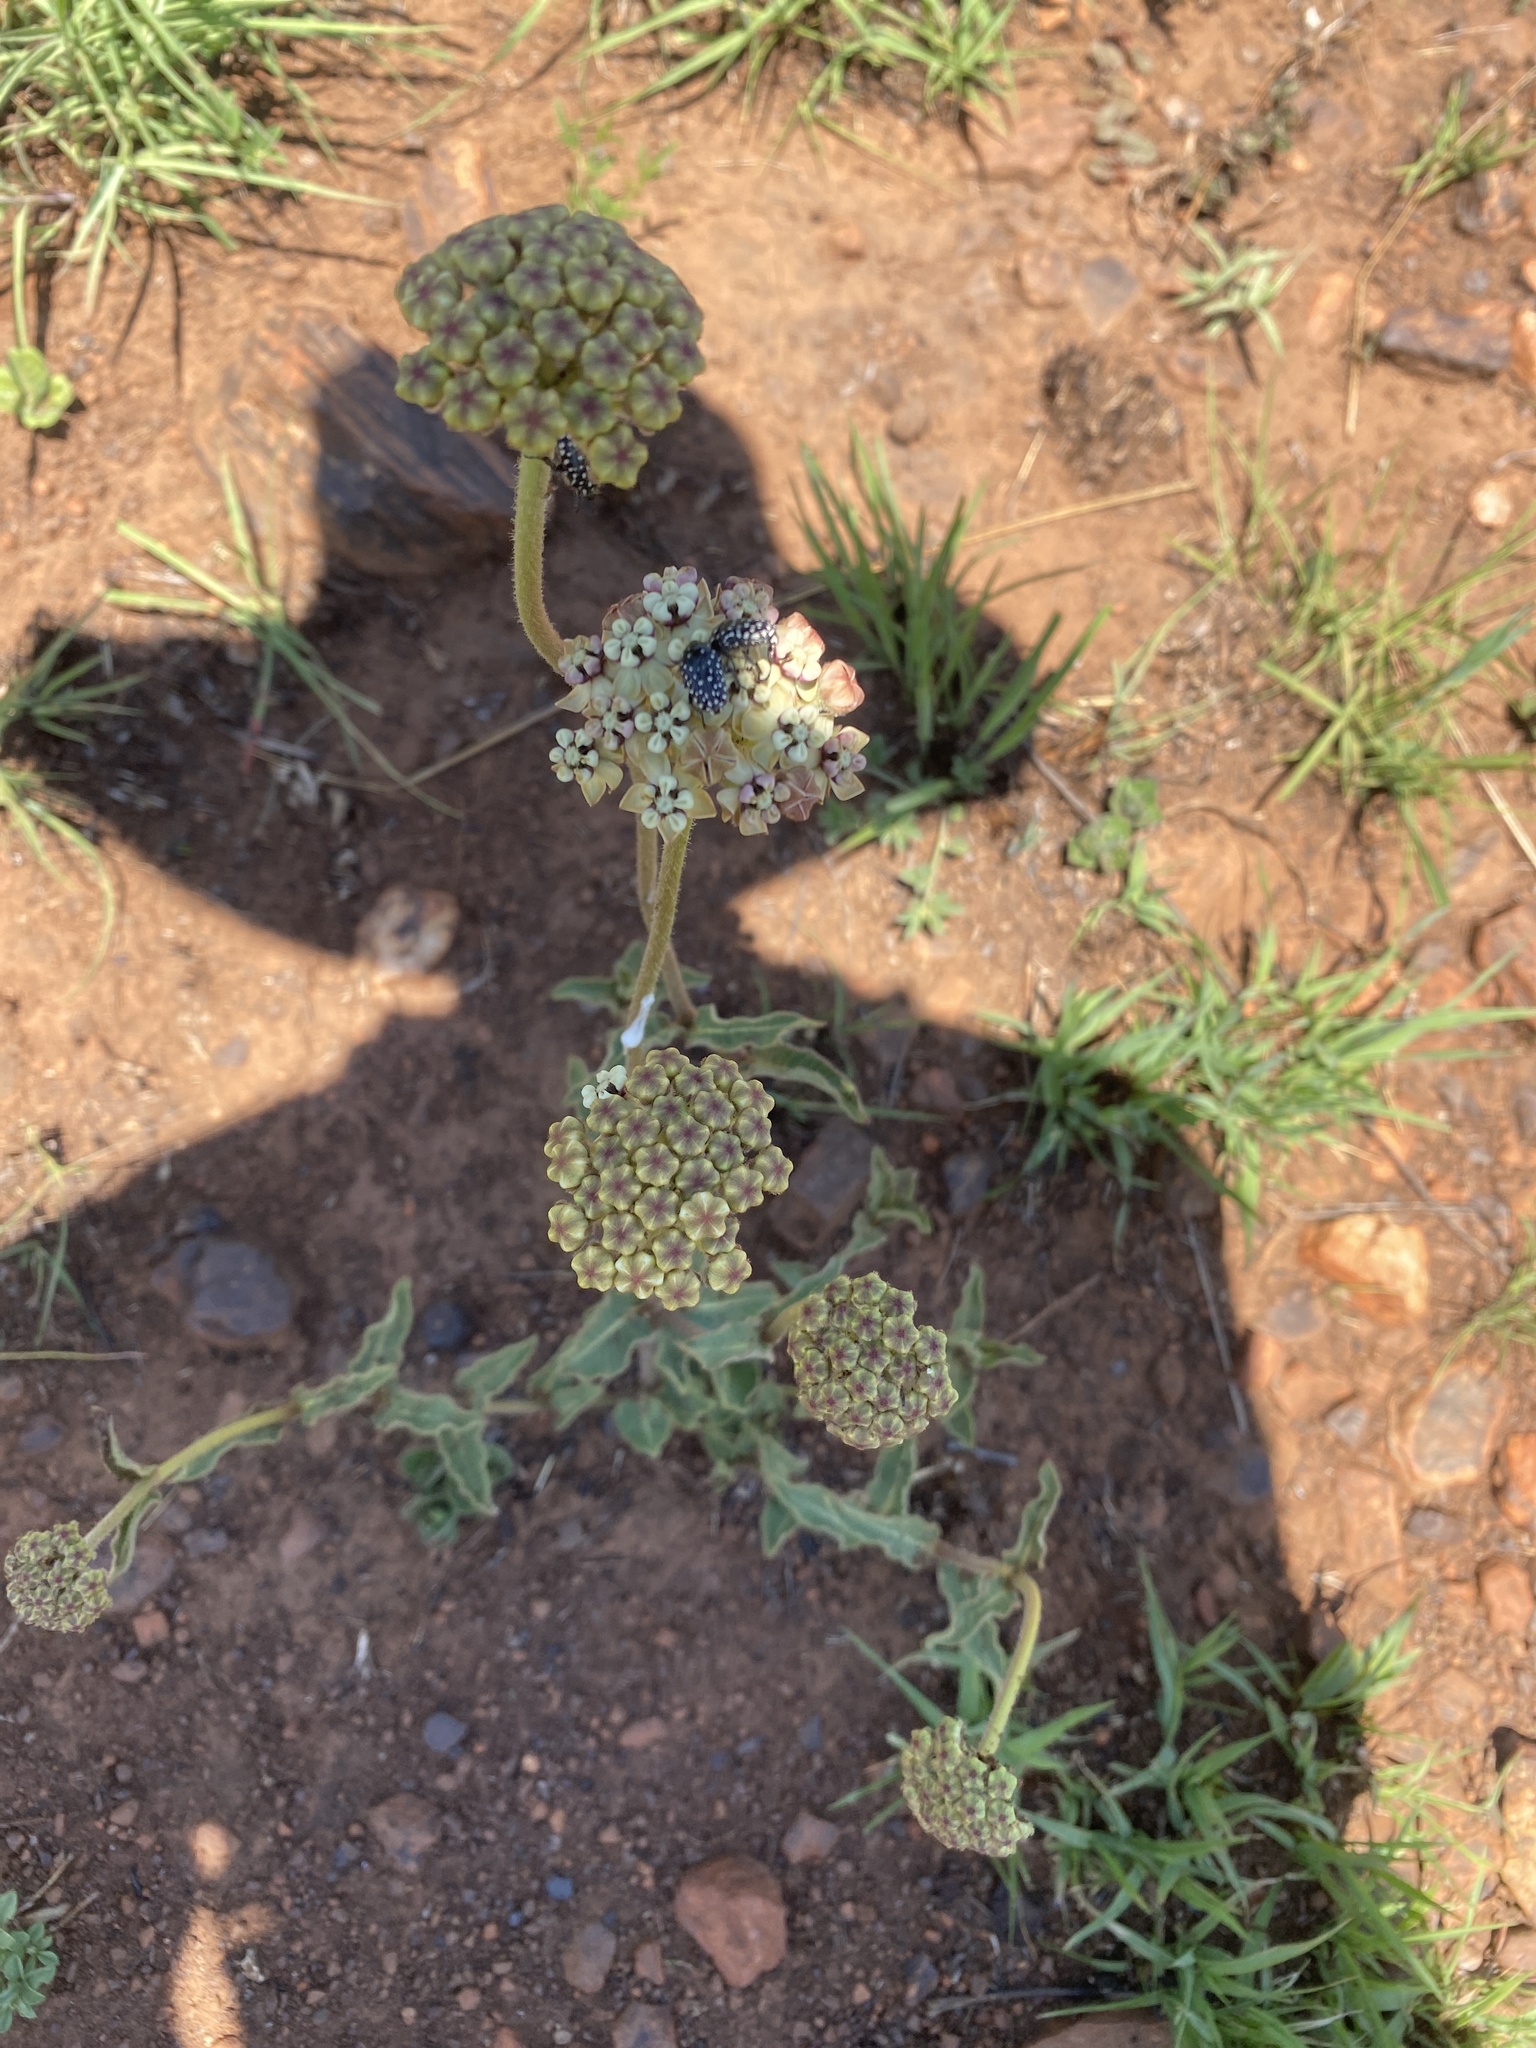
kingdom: Plantae
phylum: Tracheophyta
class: Magnoliopsida
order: Asterales
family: Asteraceae
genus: Helichrysum
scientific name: Helichrysum nudifolium
